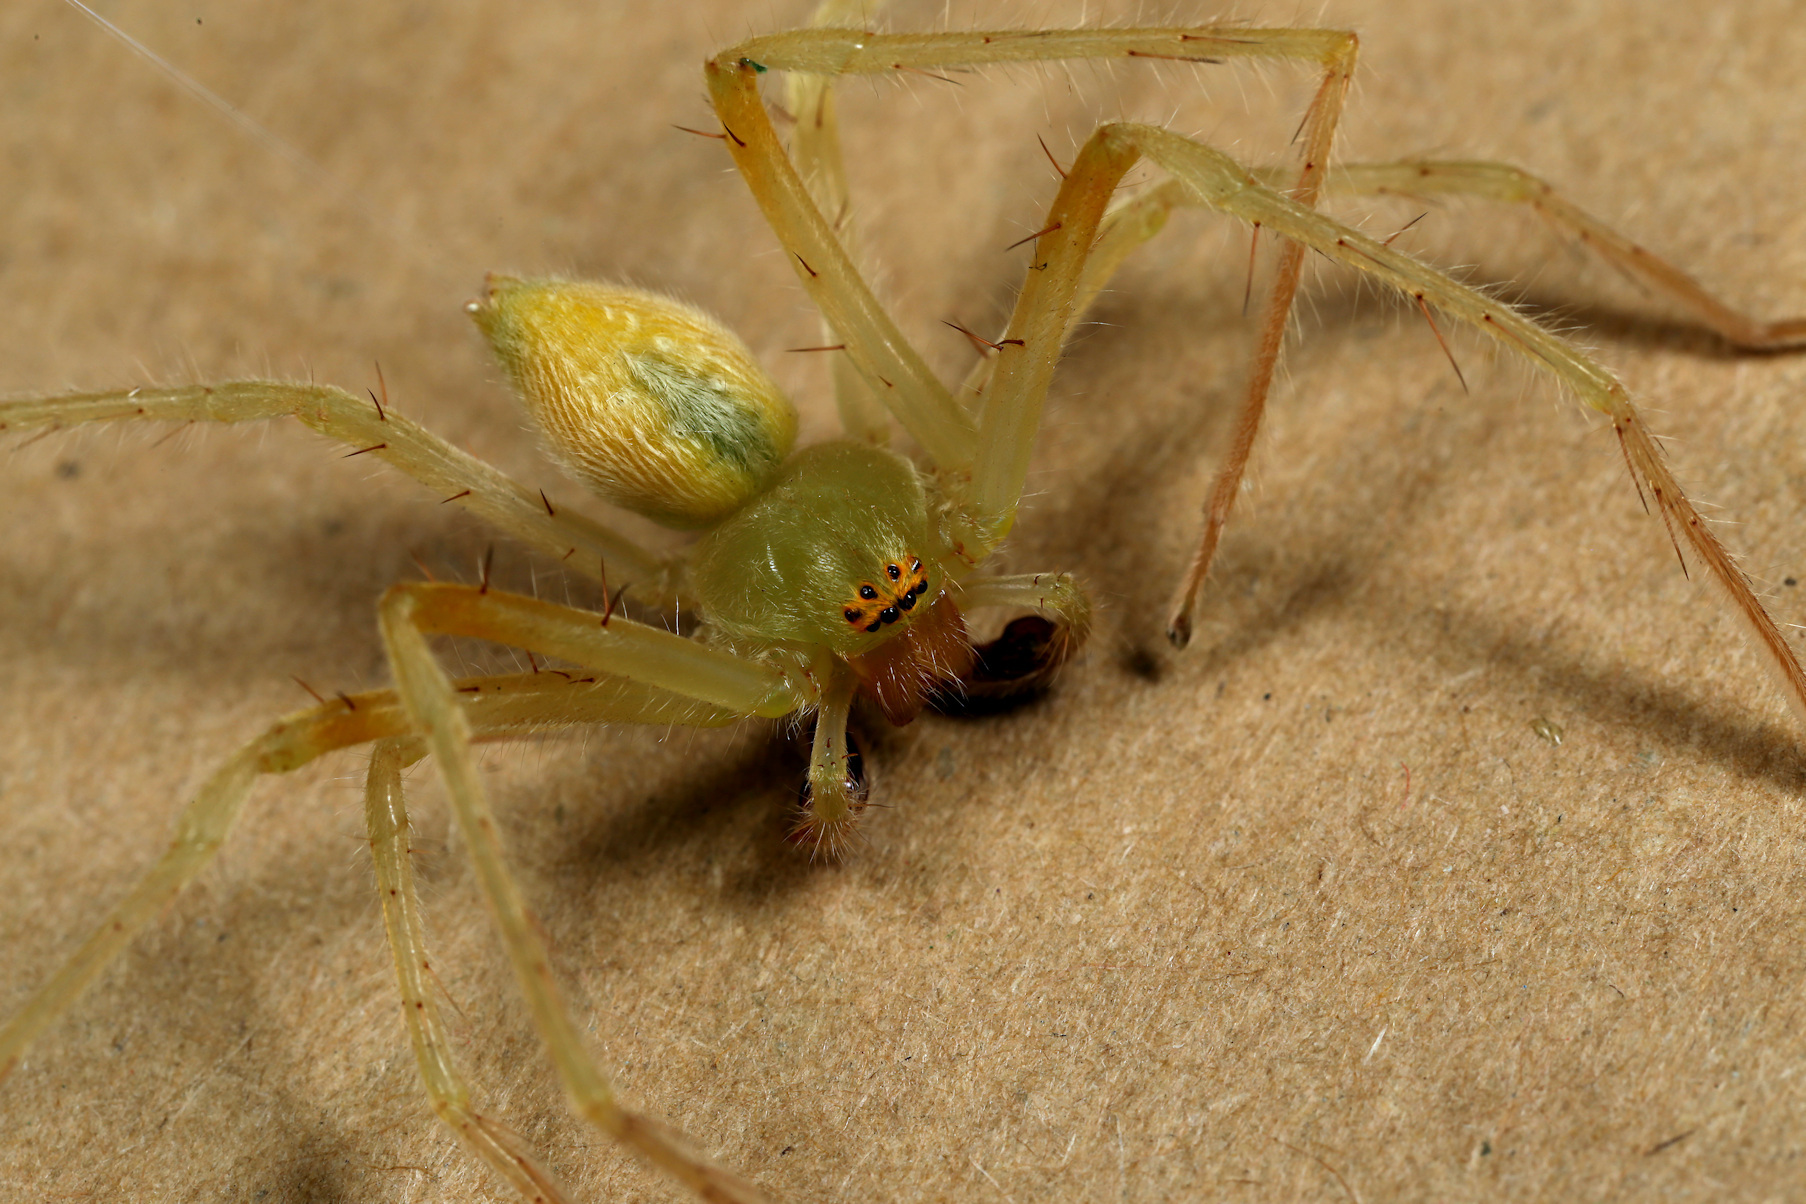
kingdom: Animalia
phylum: Arthropoda
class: Arachnida
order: Araneae
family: Sparassidae
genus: Olios
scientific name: Olios auricomis
